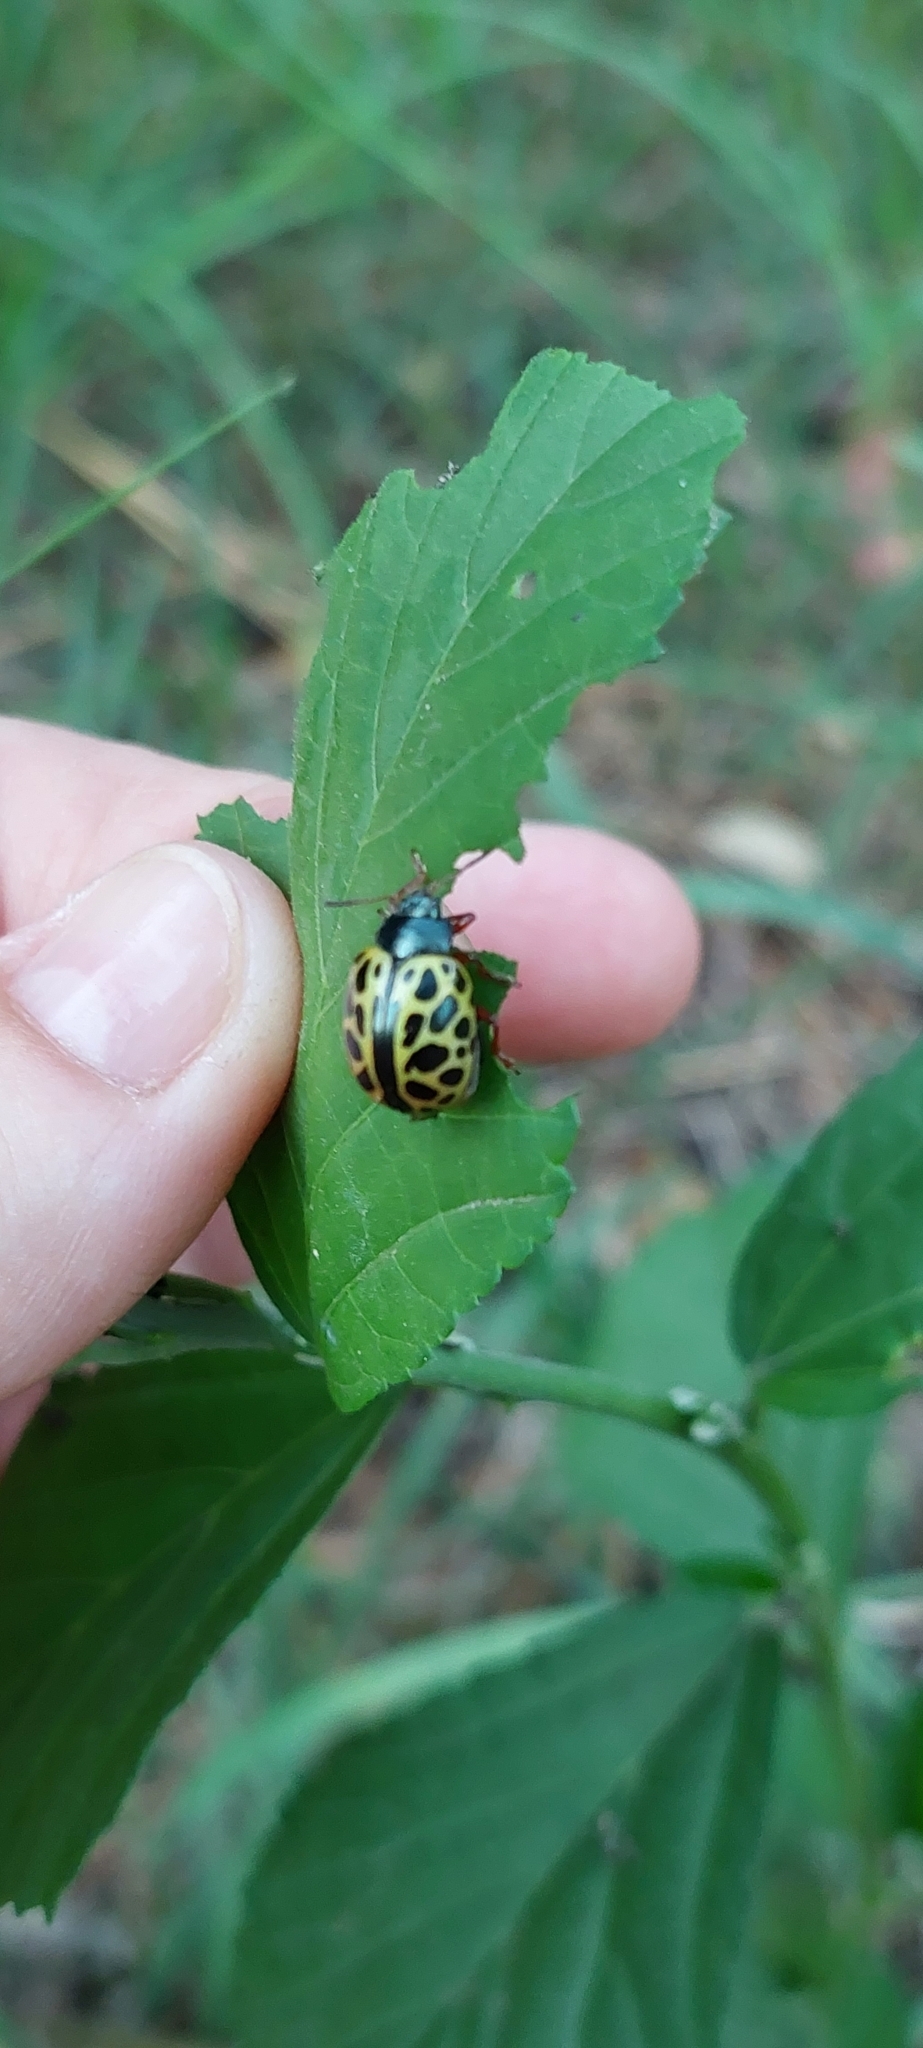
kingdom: Animalia
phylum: Arthropoda
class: Insecta
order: Coleoptera
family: Chrysomelidae
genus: Calligrapha
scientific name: Calligrapha polyspila
